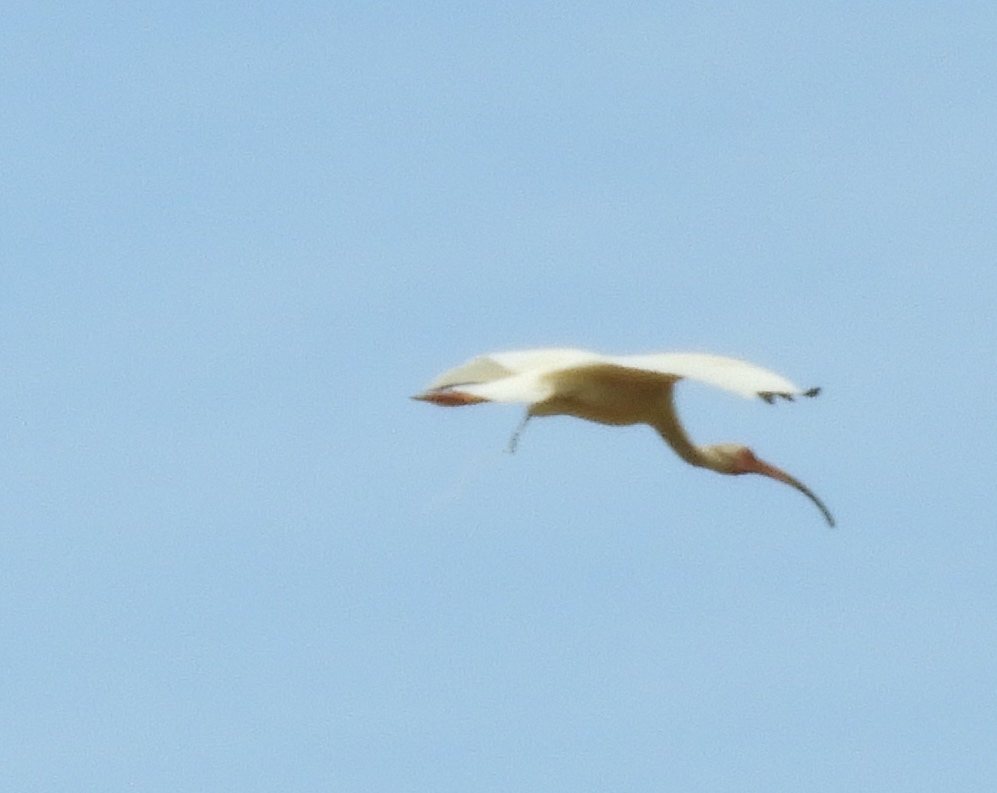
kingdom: Animalia
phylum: Chordata
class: Aves
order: Pelecaniformes
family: Threskiornithidae
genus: Eudocimus
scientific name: Eudocimus albus
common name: White ibis
